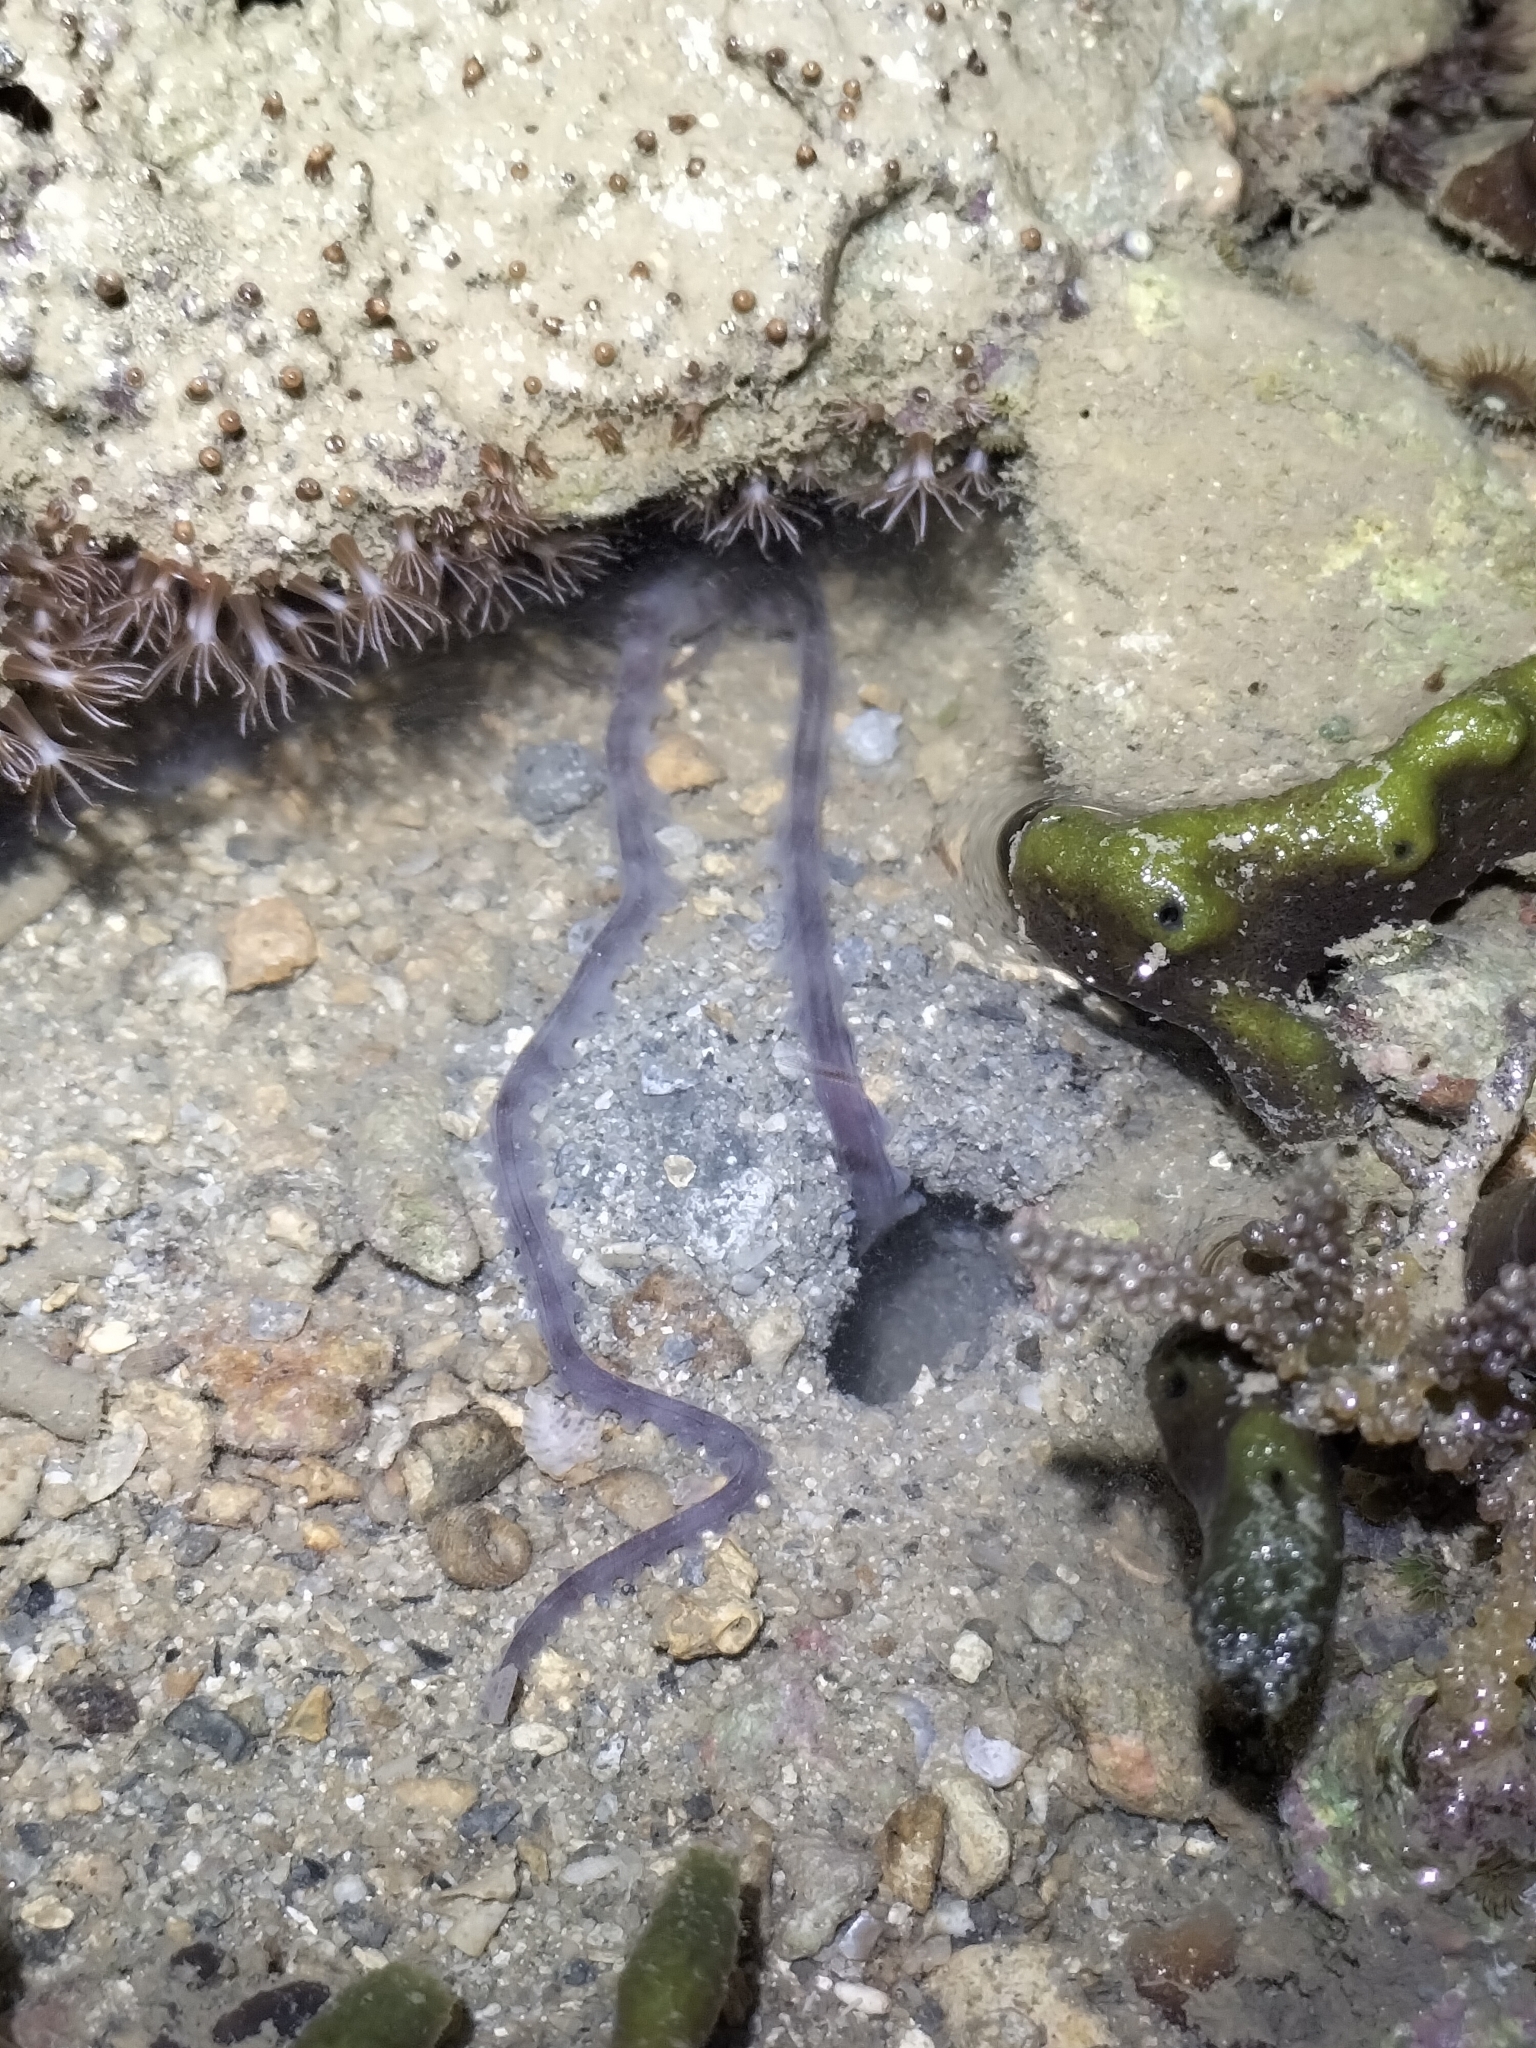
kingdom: Animalia
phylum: Mollusca
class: Cephalopoda
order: Octopoda
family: Octopodidae
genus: Ameloctopus
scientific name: Ameloctopus litoralis
